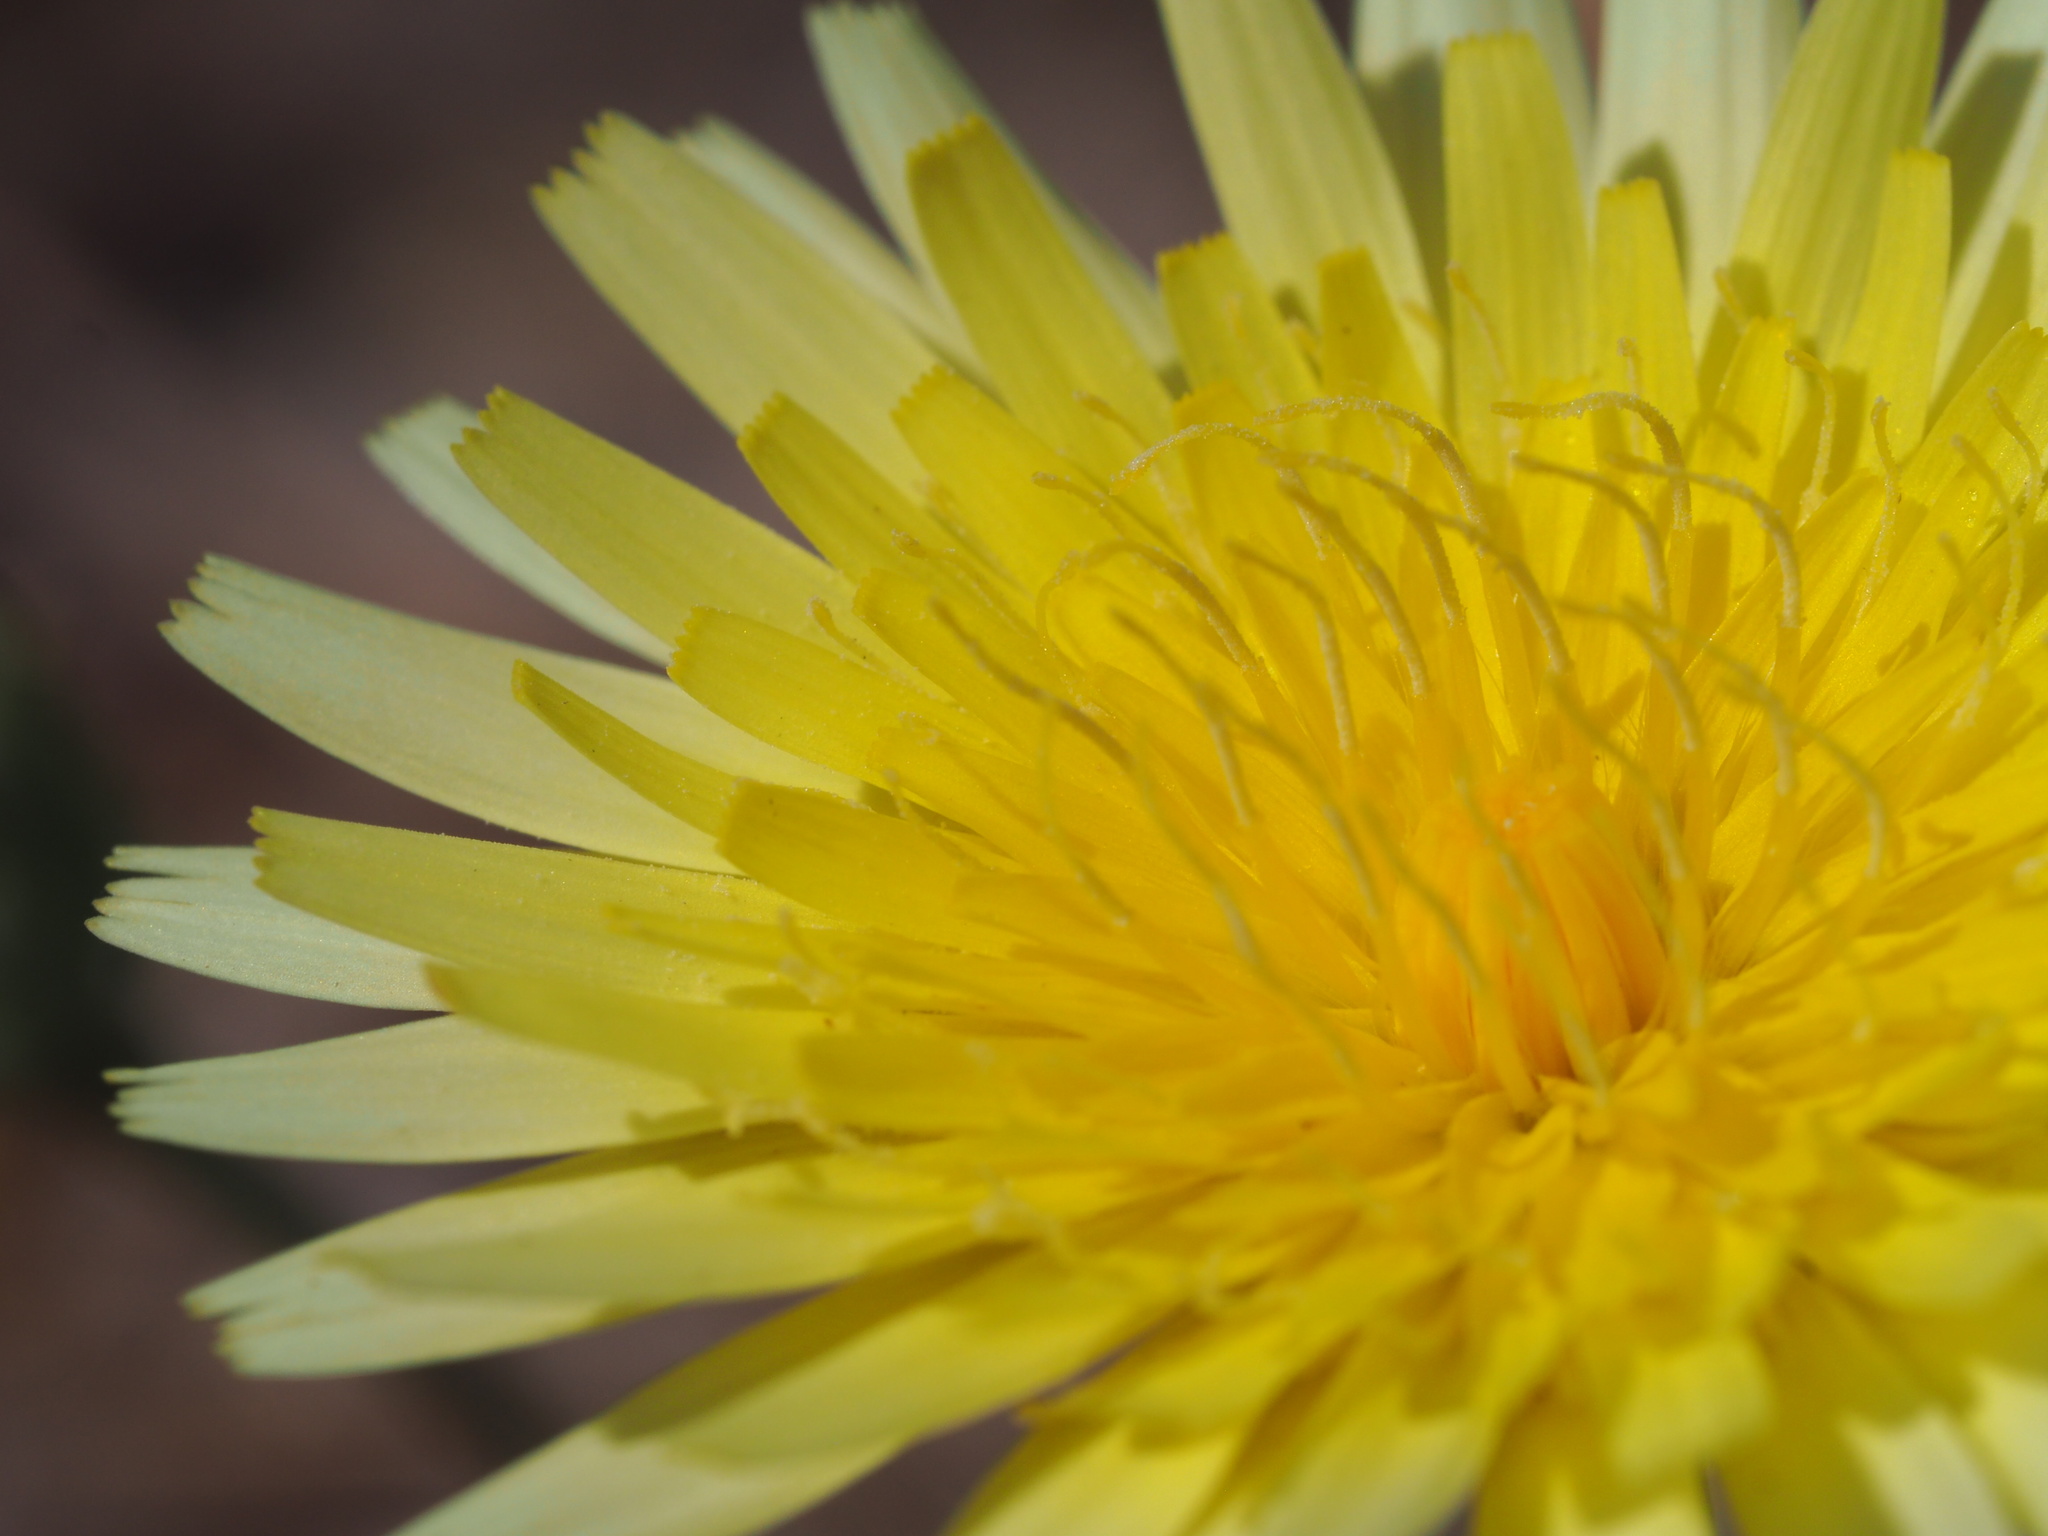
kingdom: Plantae
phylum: Tracheophyta
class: Magnoliopsida
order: Asterales
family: Asteraceae
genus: Malacothrix
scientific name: Malacothrix glabrata
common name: Smooth desert-dandelion
